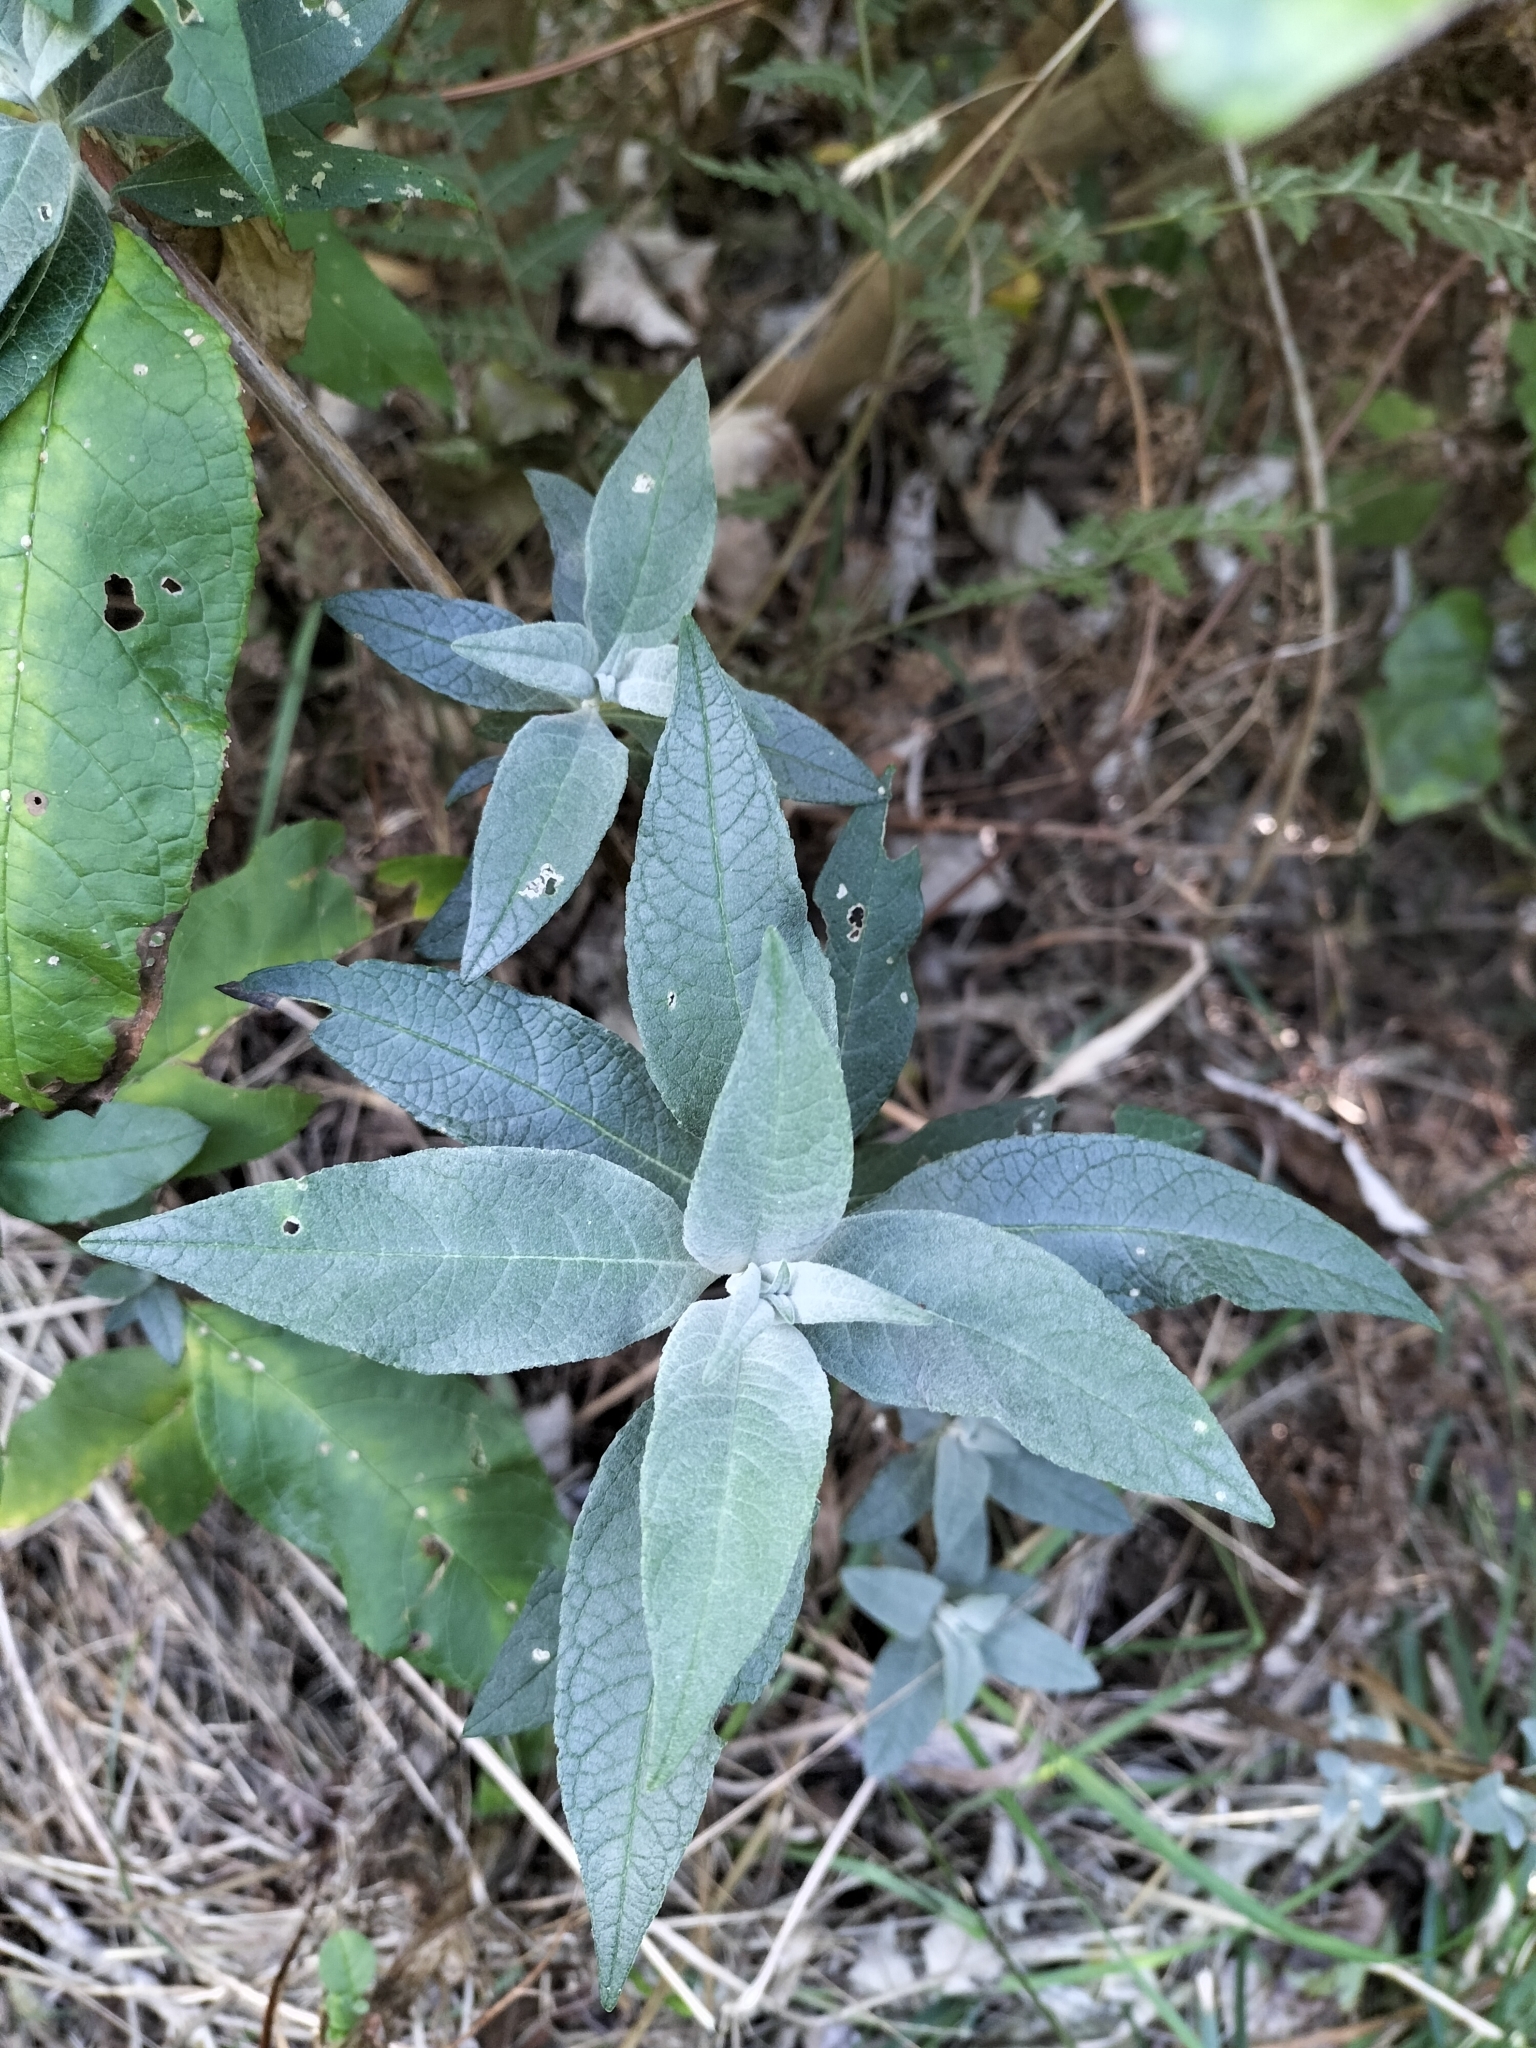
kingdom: Plantae
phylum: Tracheophyta
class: Magnoliopsida
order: Lamiales
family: Scrophulariaceae
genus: Buddleja
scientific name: Buddleja davidii
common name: Butterfly-bush
